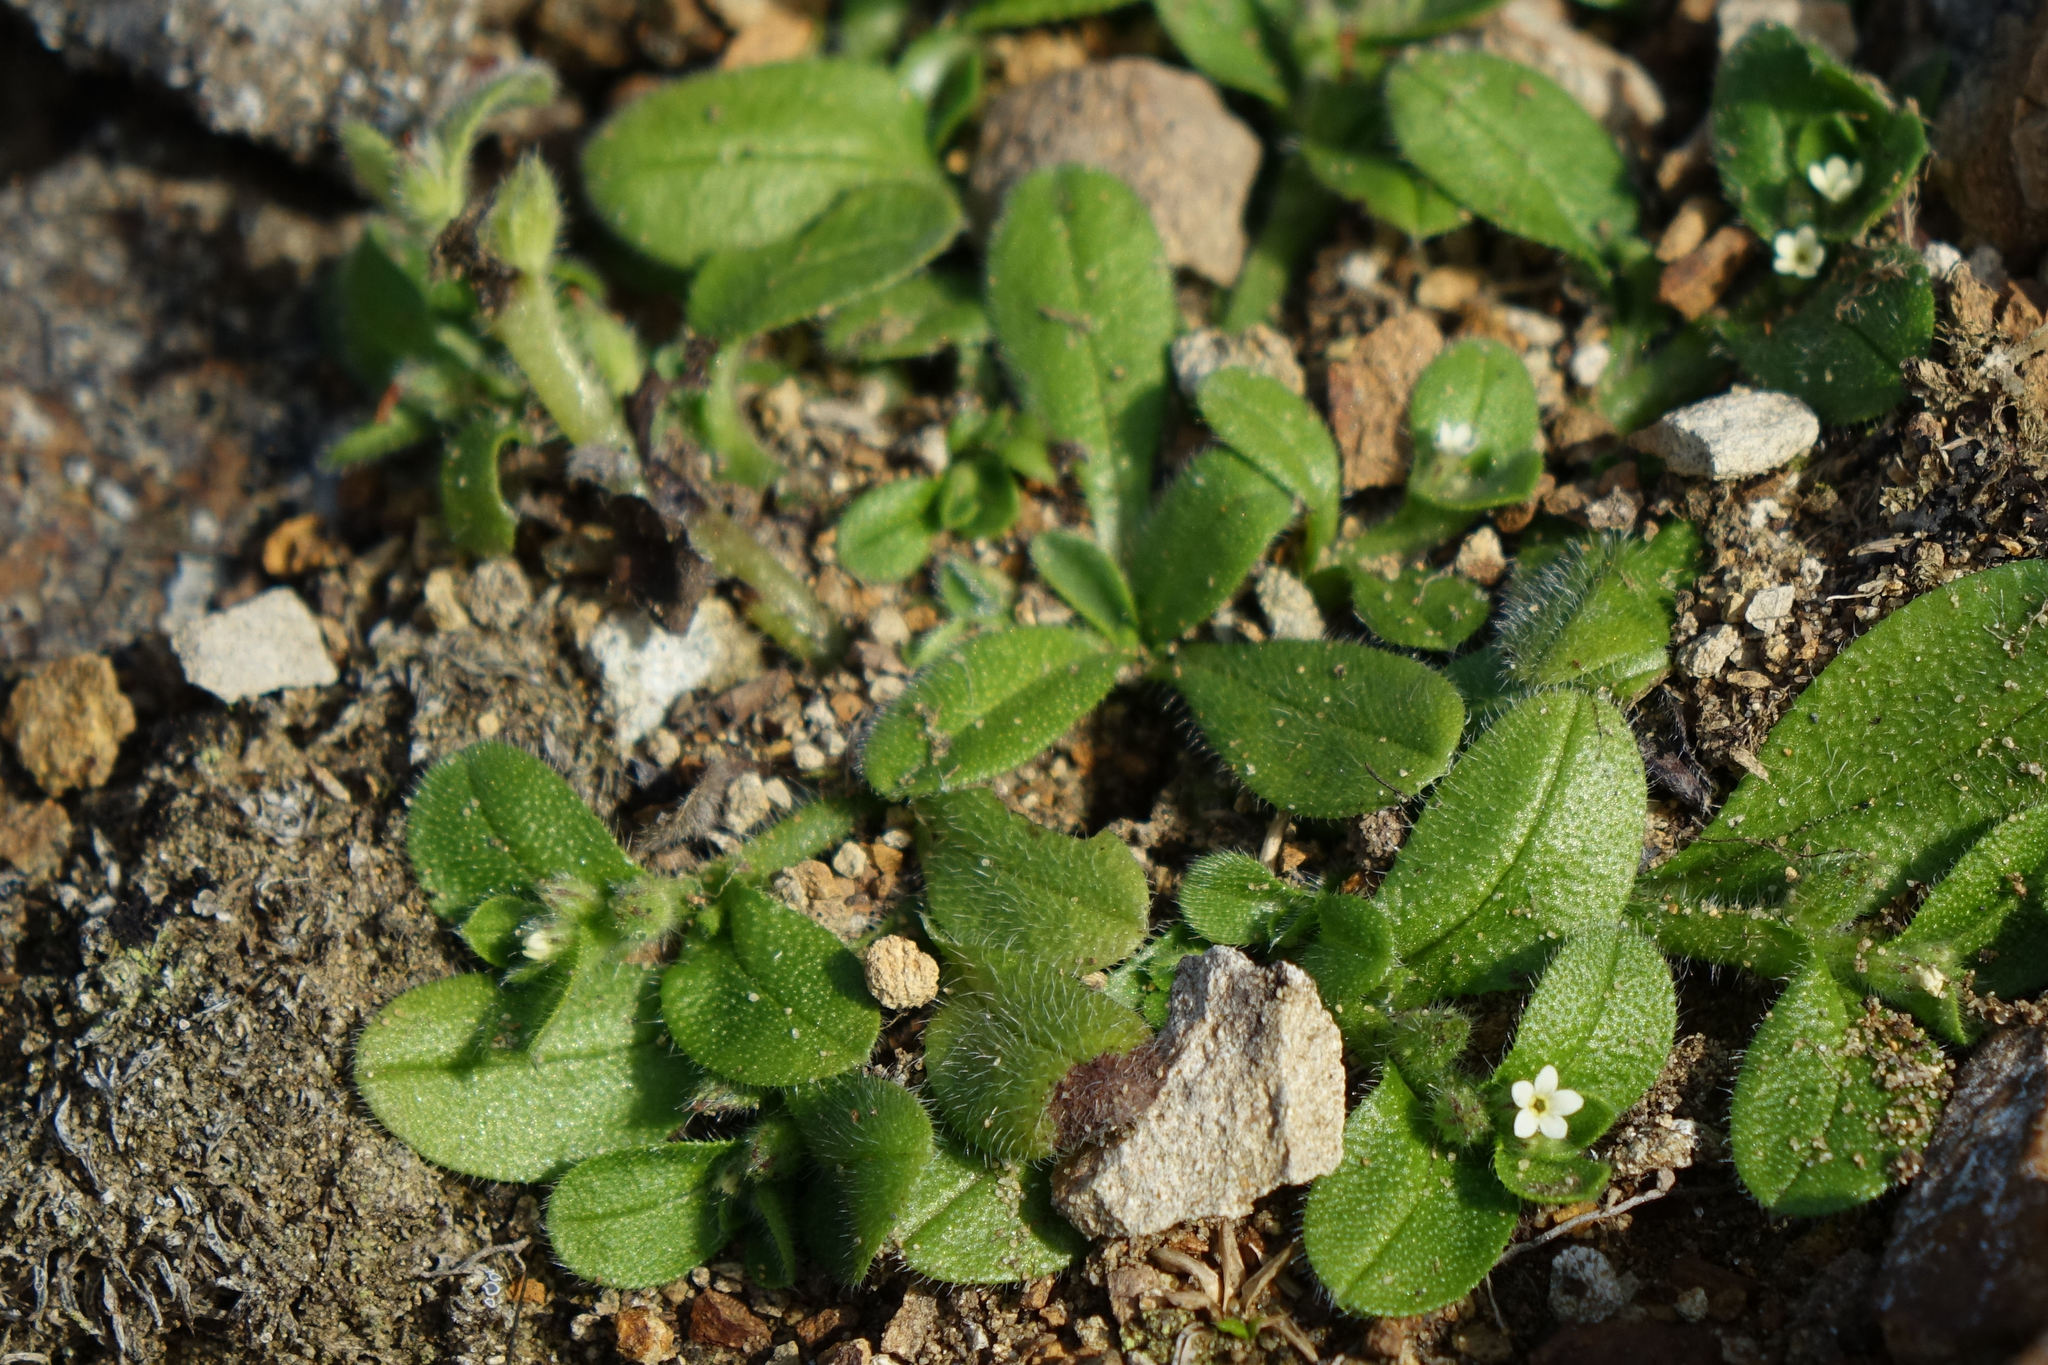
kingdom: Plantae
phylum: Tracheophyta
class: Magnoliopsida
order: Boraginales
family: Boraginaceae
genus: Myosotis
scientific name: Myosotis antarctica
